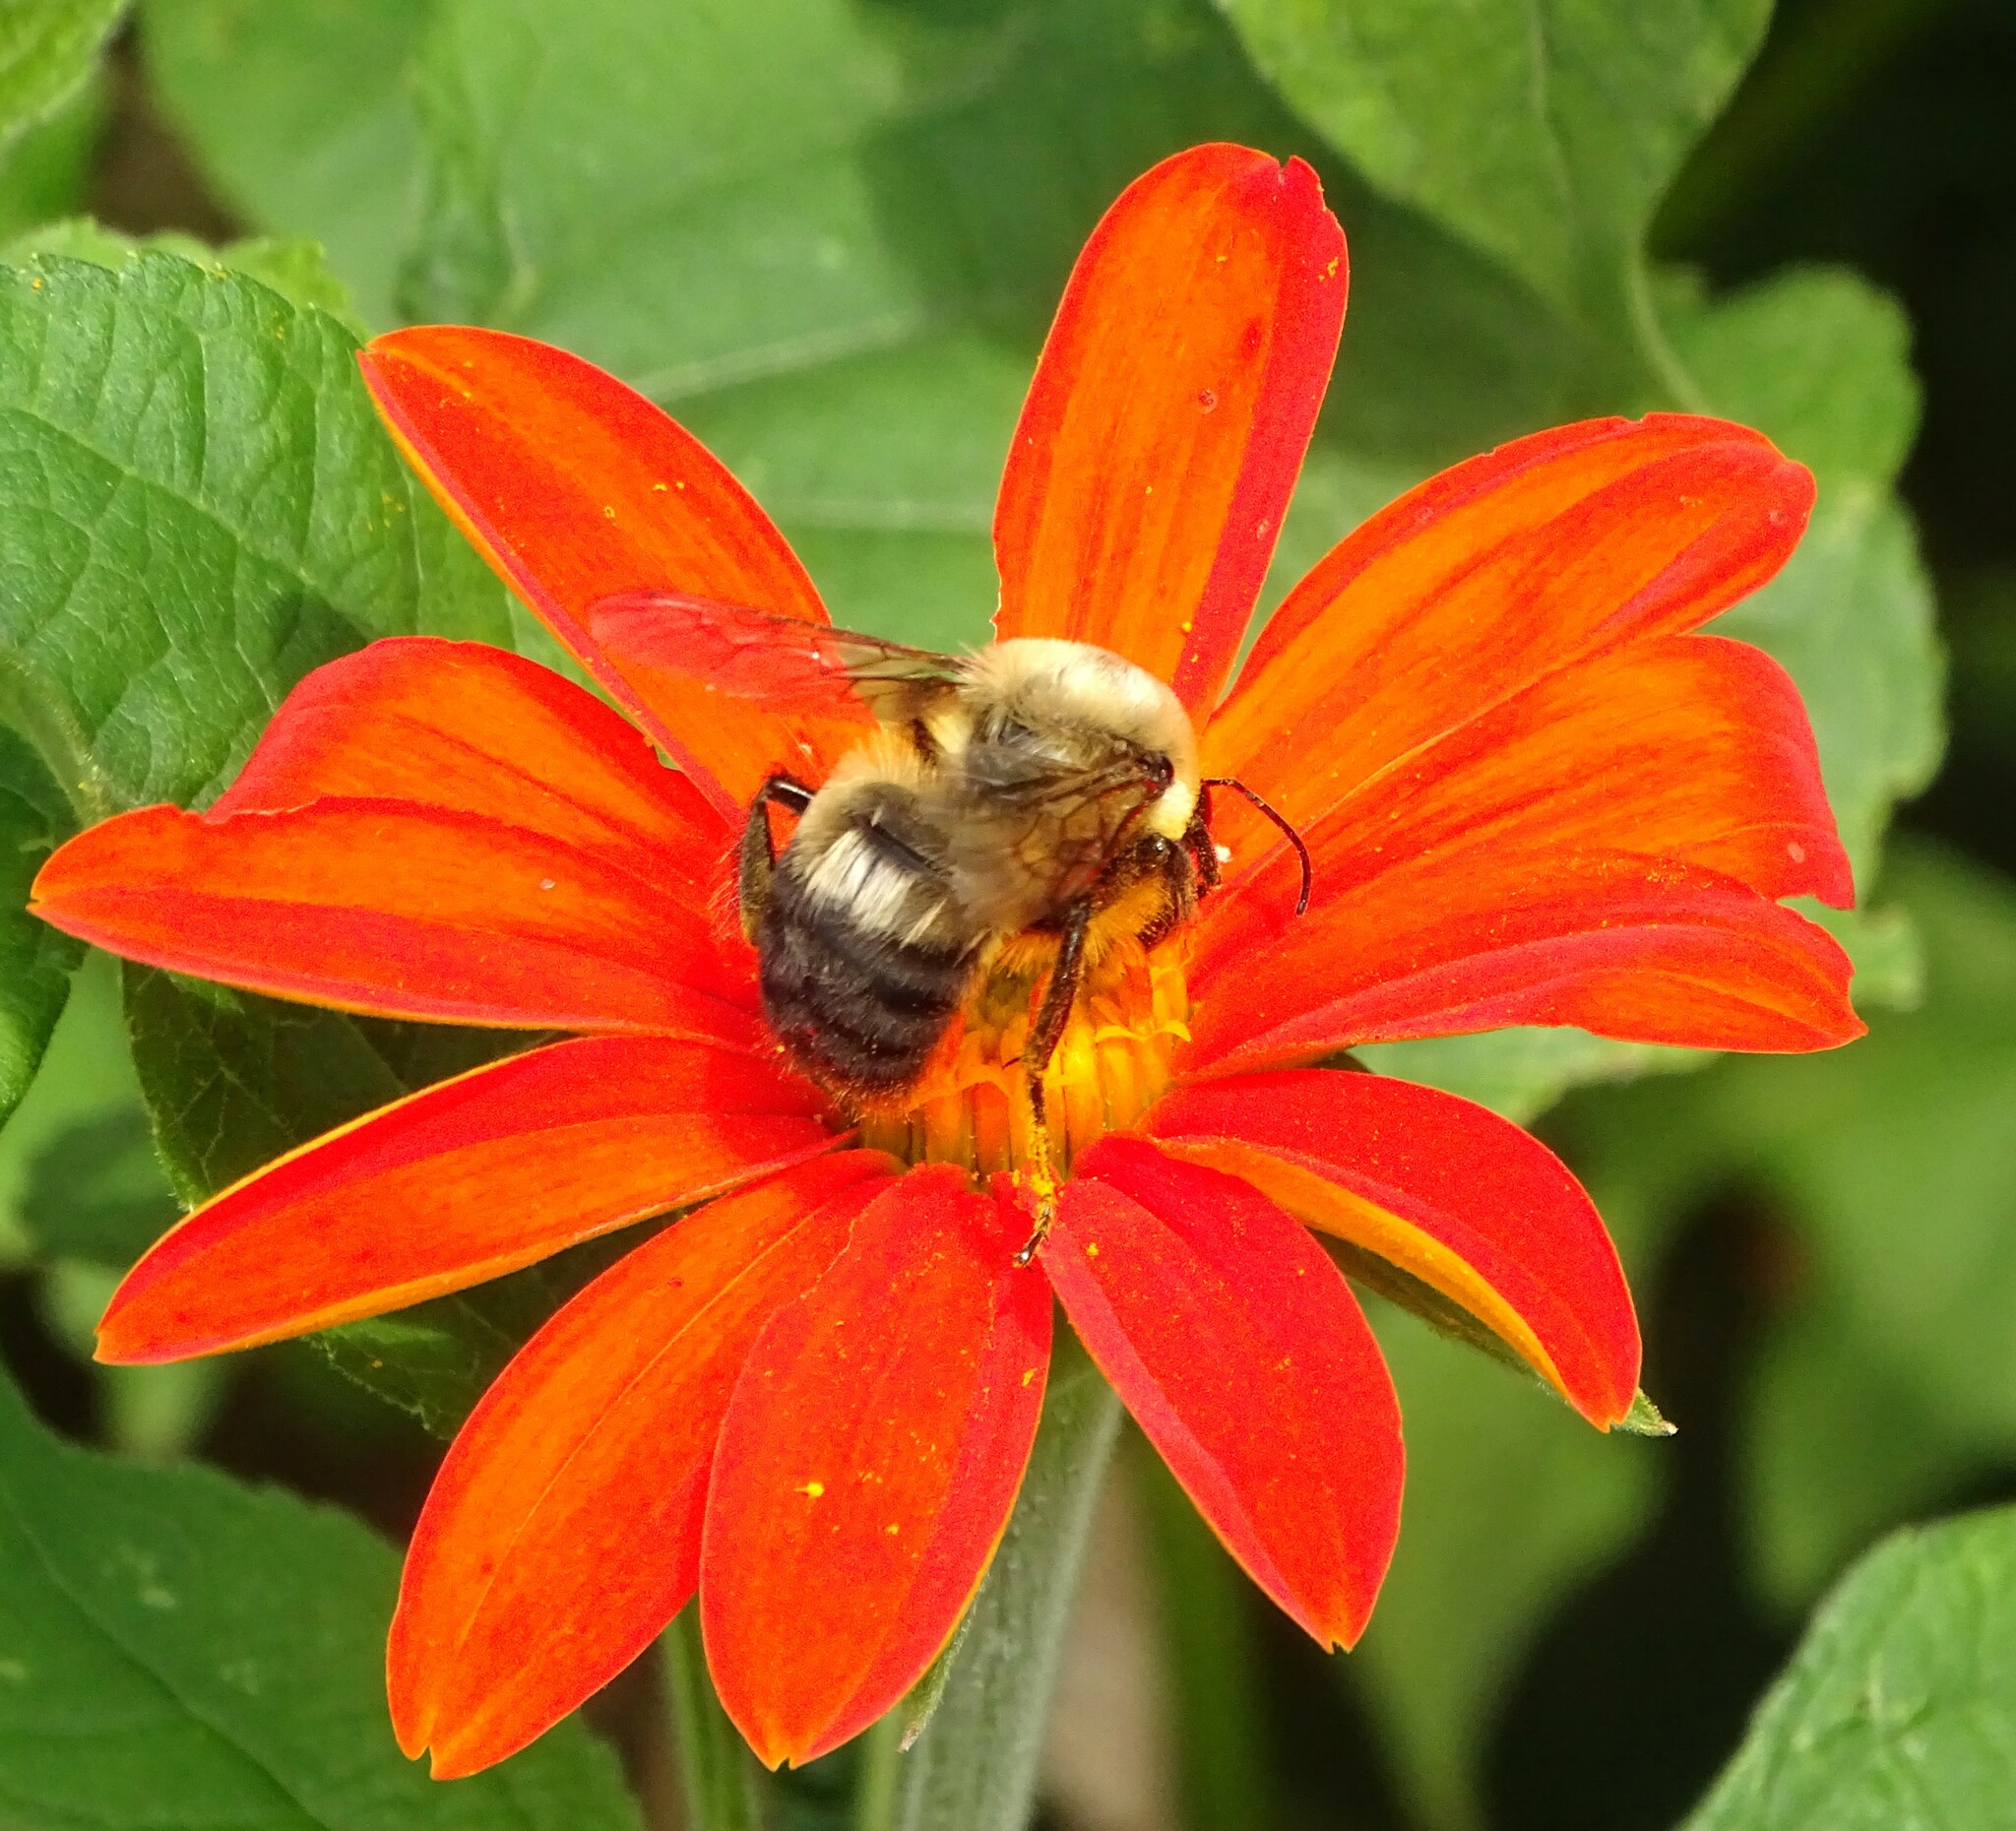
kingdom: Animalia
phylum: Arthropoda
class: Insecta
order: Hymenoptera
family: Apidae
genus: Bombus
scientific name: Bombus griseocollis
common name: Brown-belted bumble bee
